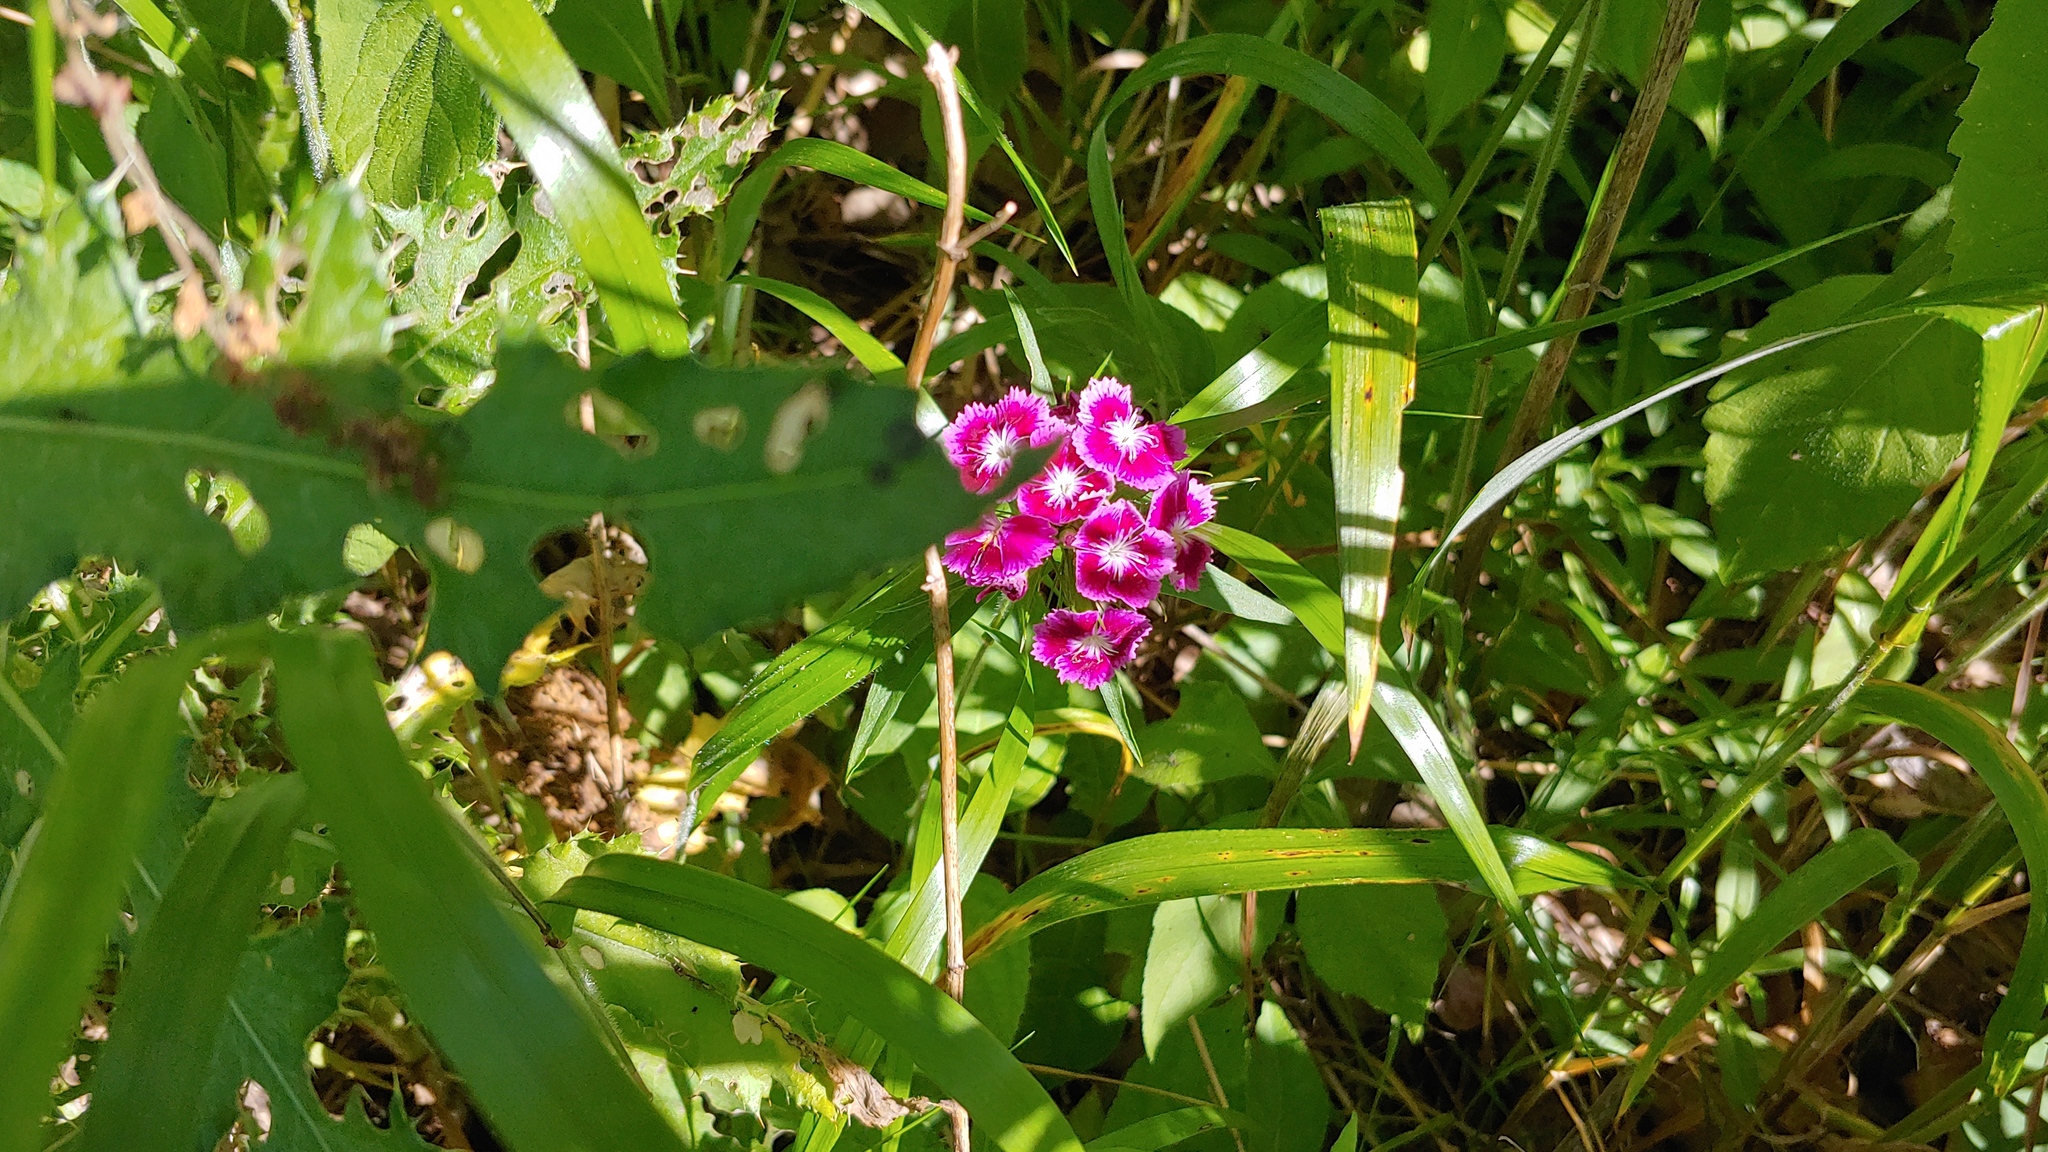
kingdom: Plantae
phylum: Tracheophyta
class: Magnoliopsida
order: Caryophyllales
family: Caryophyllaceae
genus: Dianthus
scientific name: Dianthus barbatus
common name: Sweet-william
